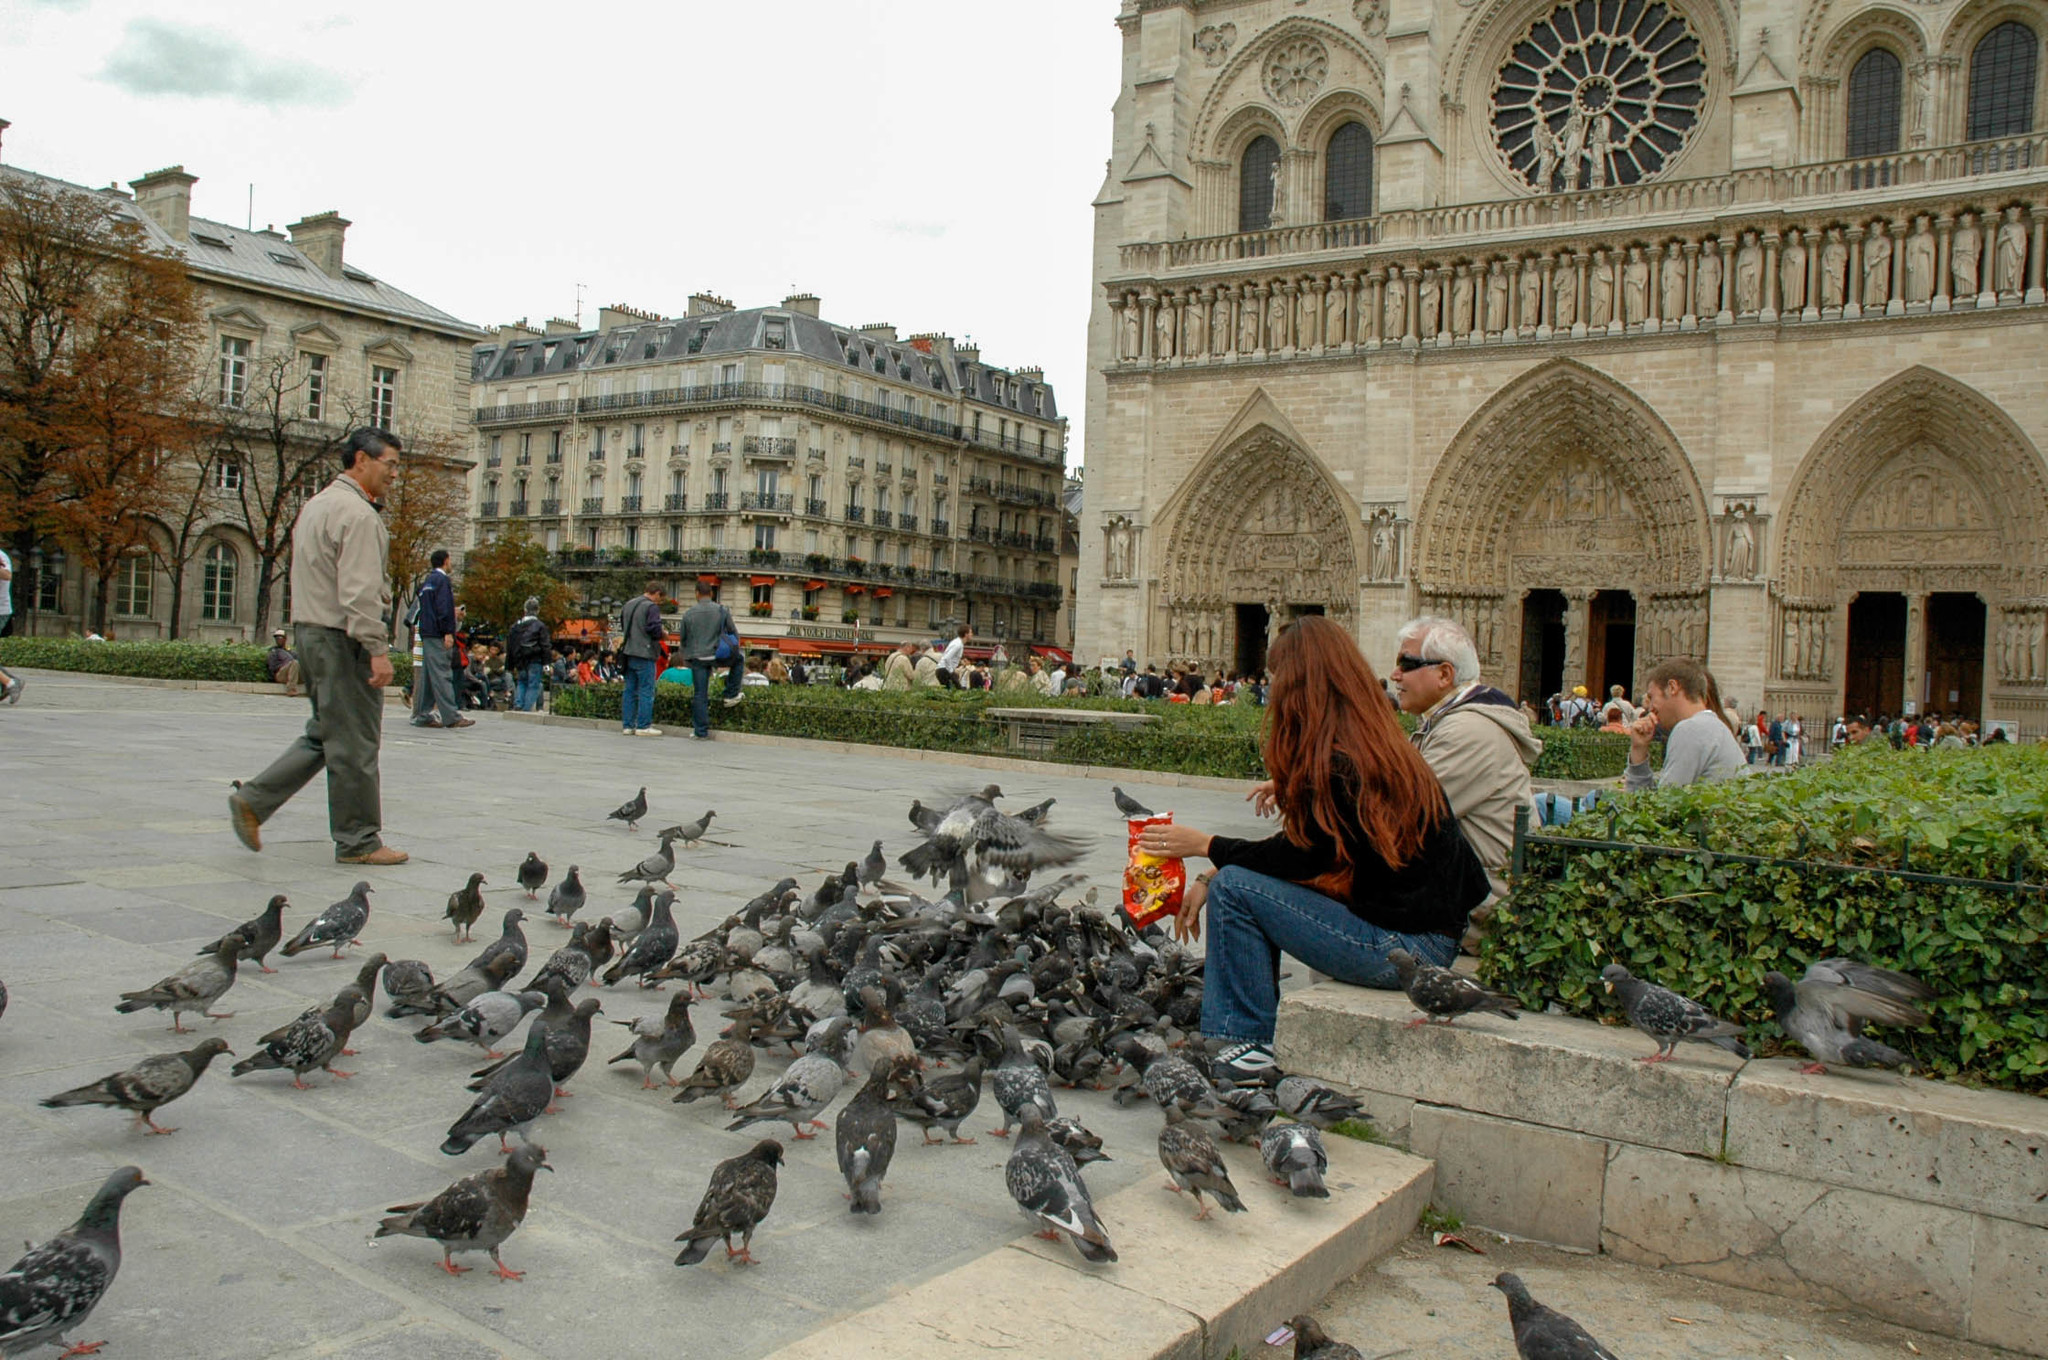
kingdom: Animalia
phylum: Chordata
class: Aves
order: Columbiformes
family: Columbidae
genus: Columba
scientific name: Columba livia
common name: Rock pigeon
